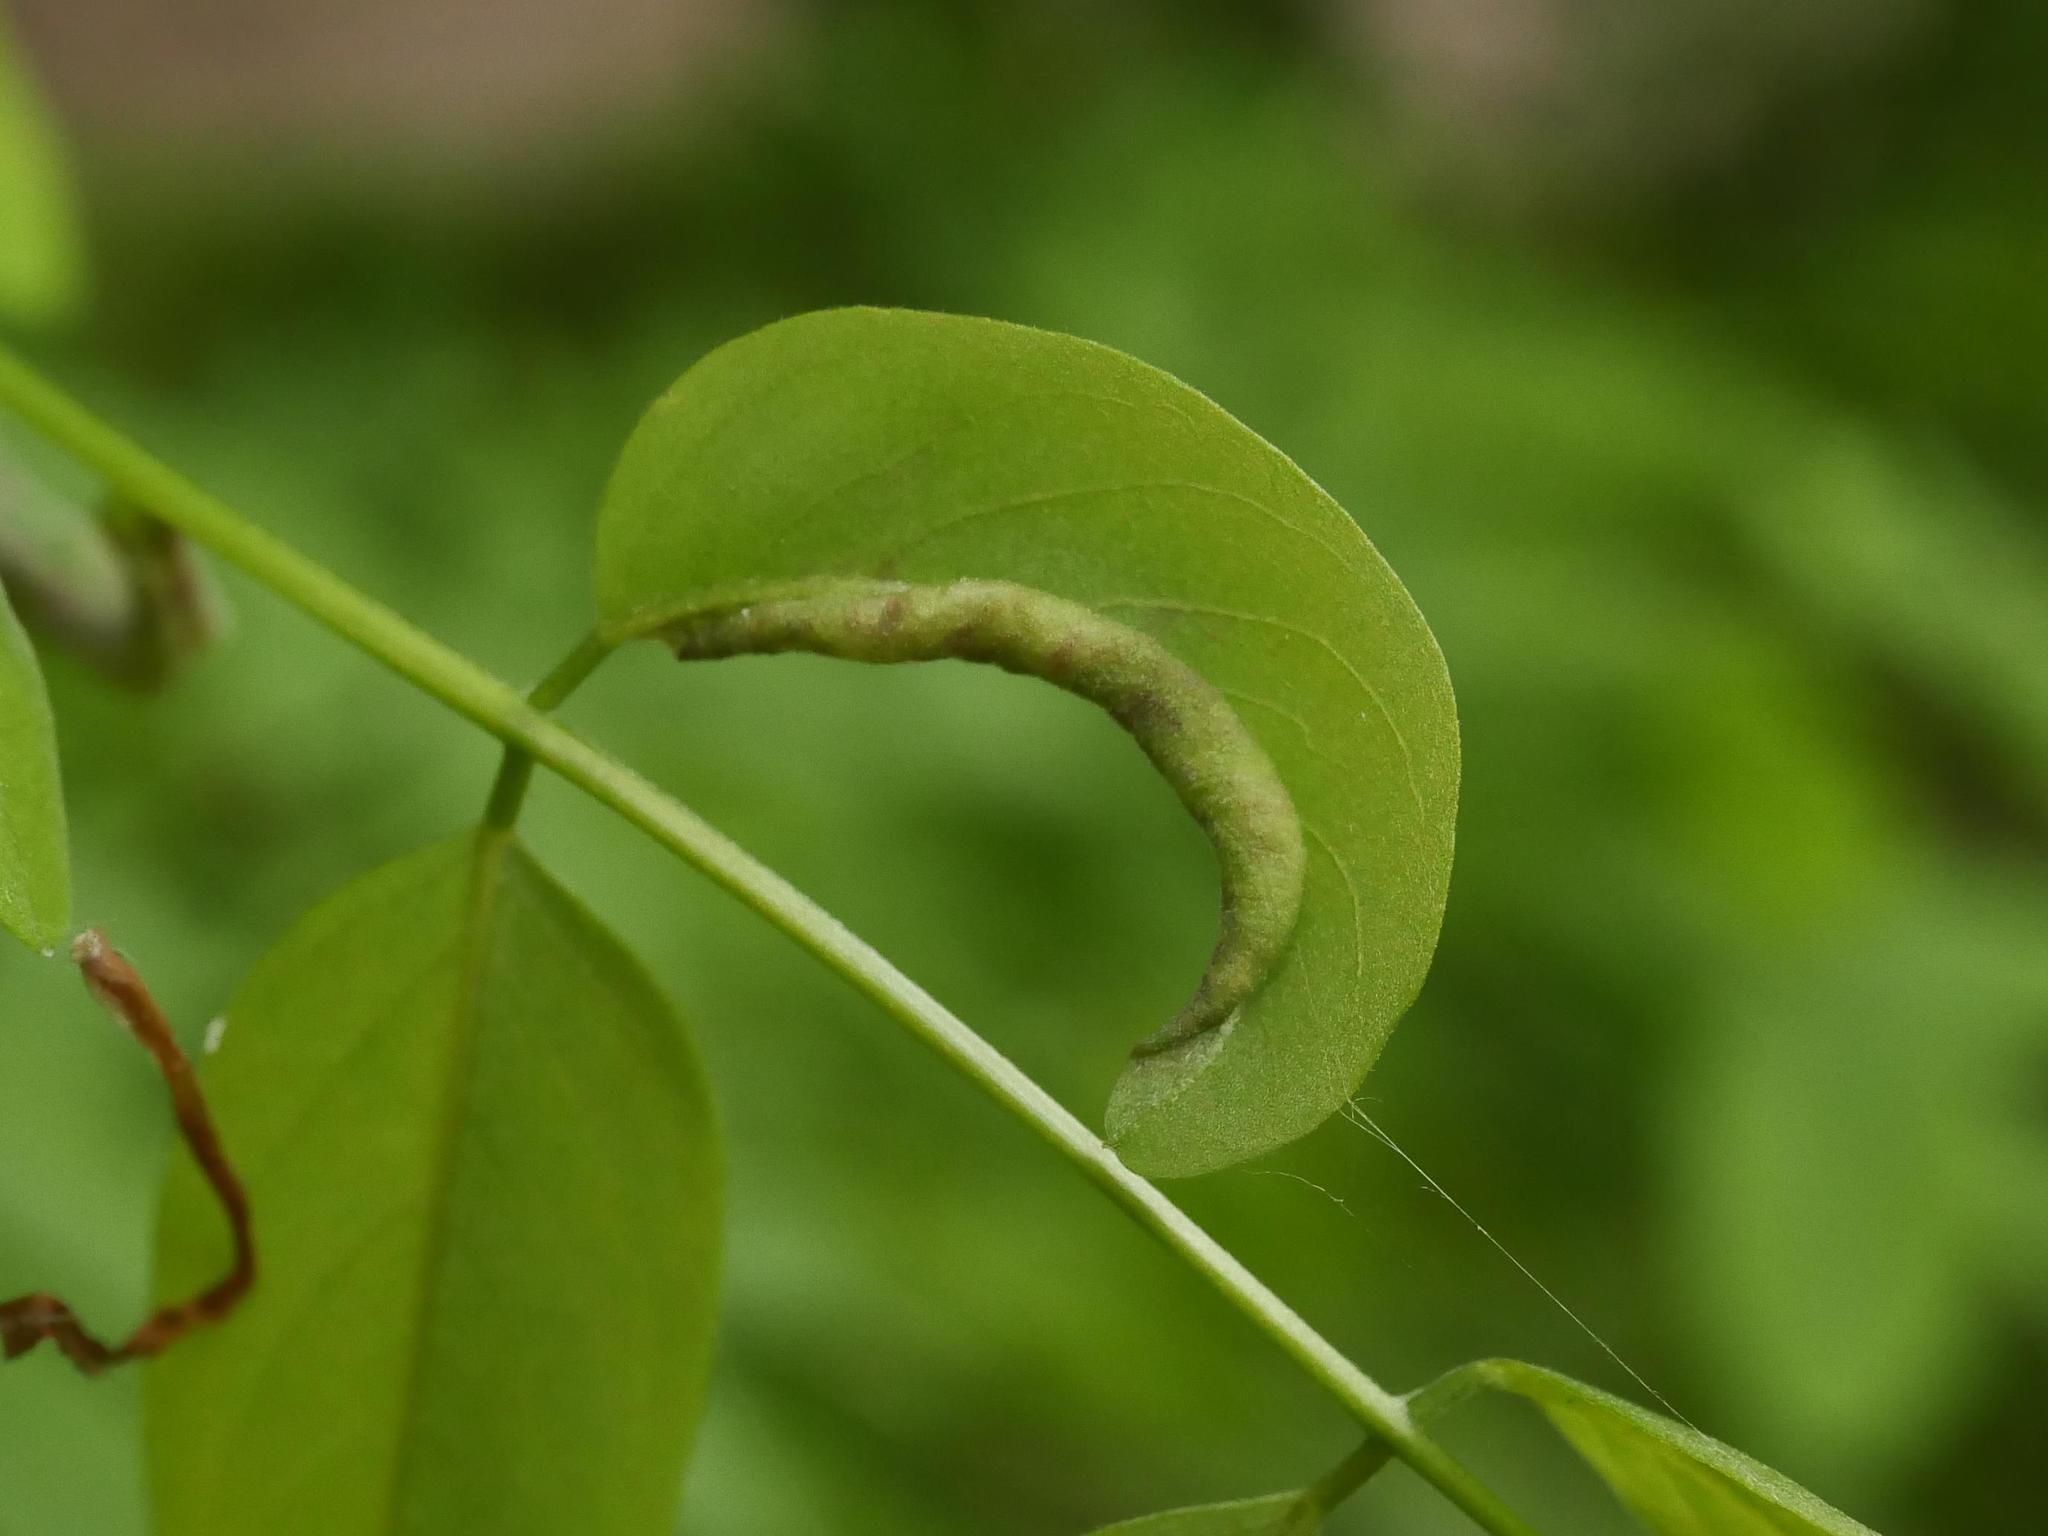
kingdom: Animalia
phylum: Arthropoda
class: Insecta
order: Diptera
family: Cecidomyiidae
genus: Obolodiplosis
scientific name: Obolodiplosis robiniae
